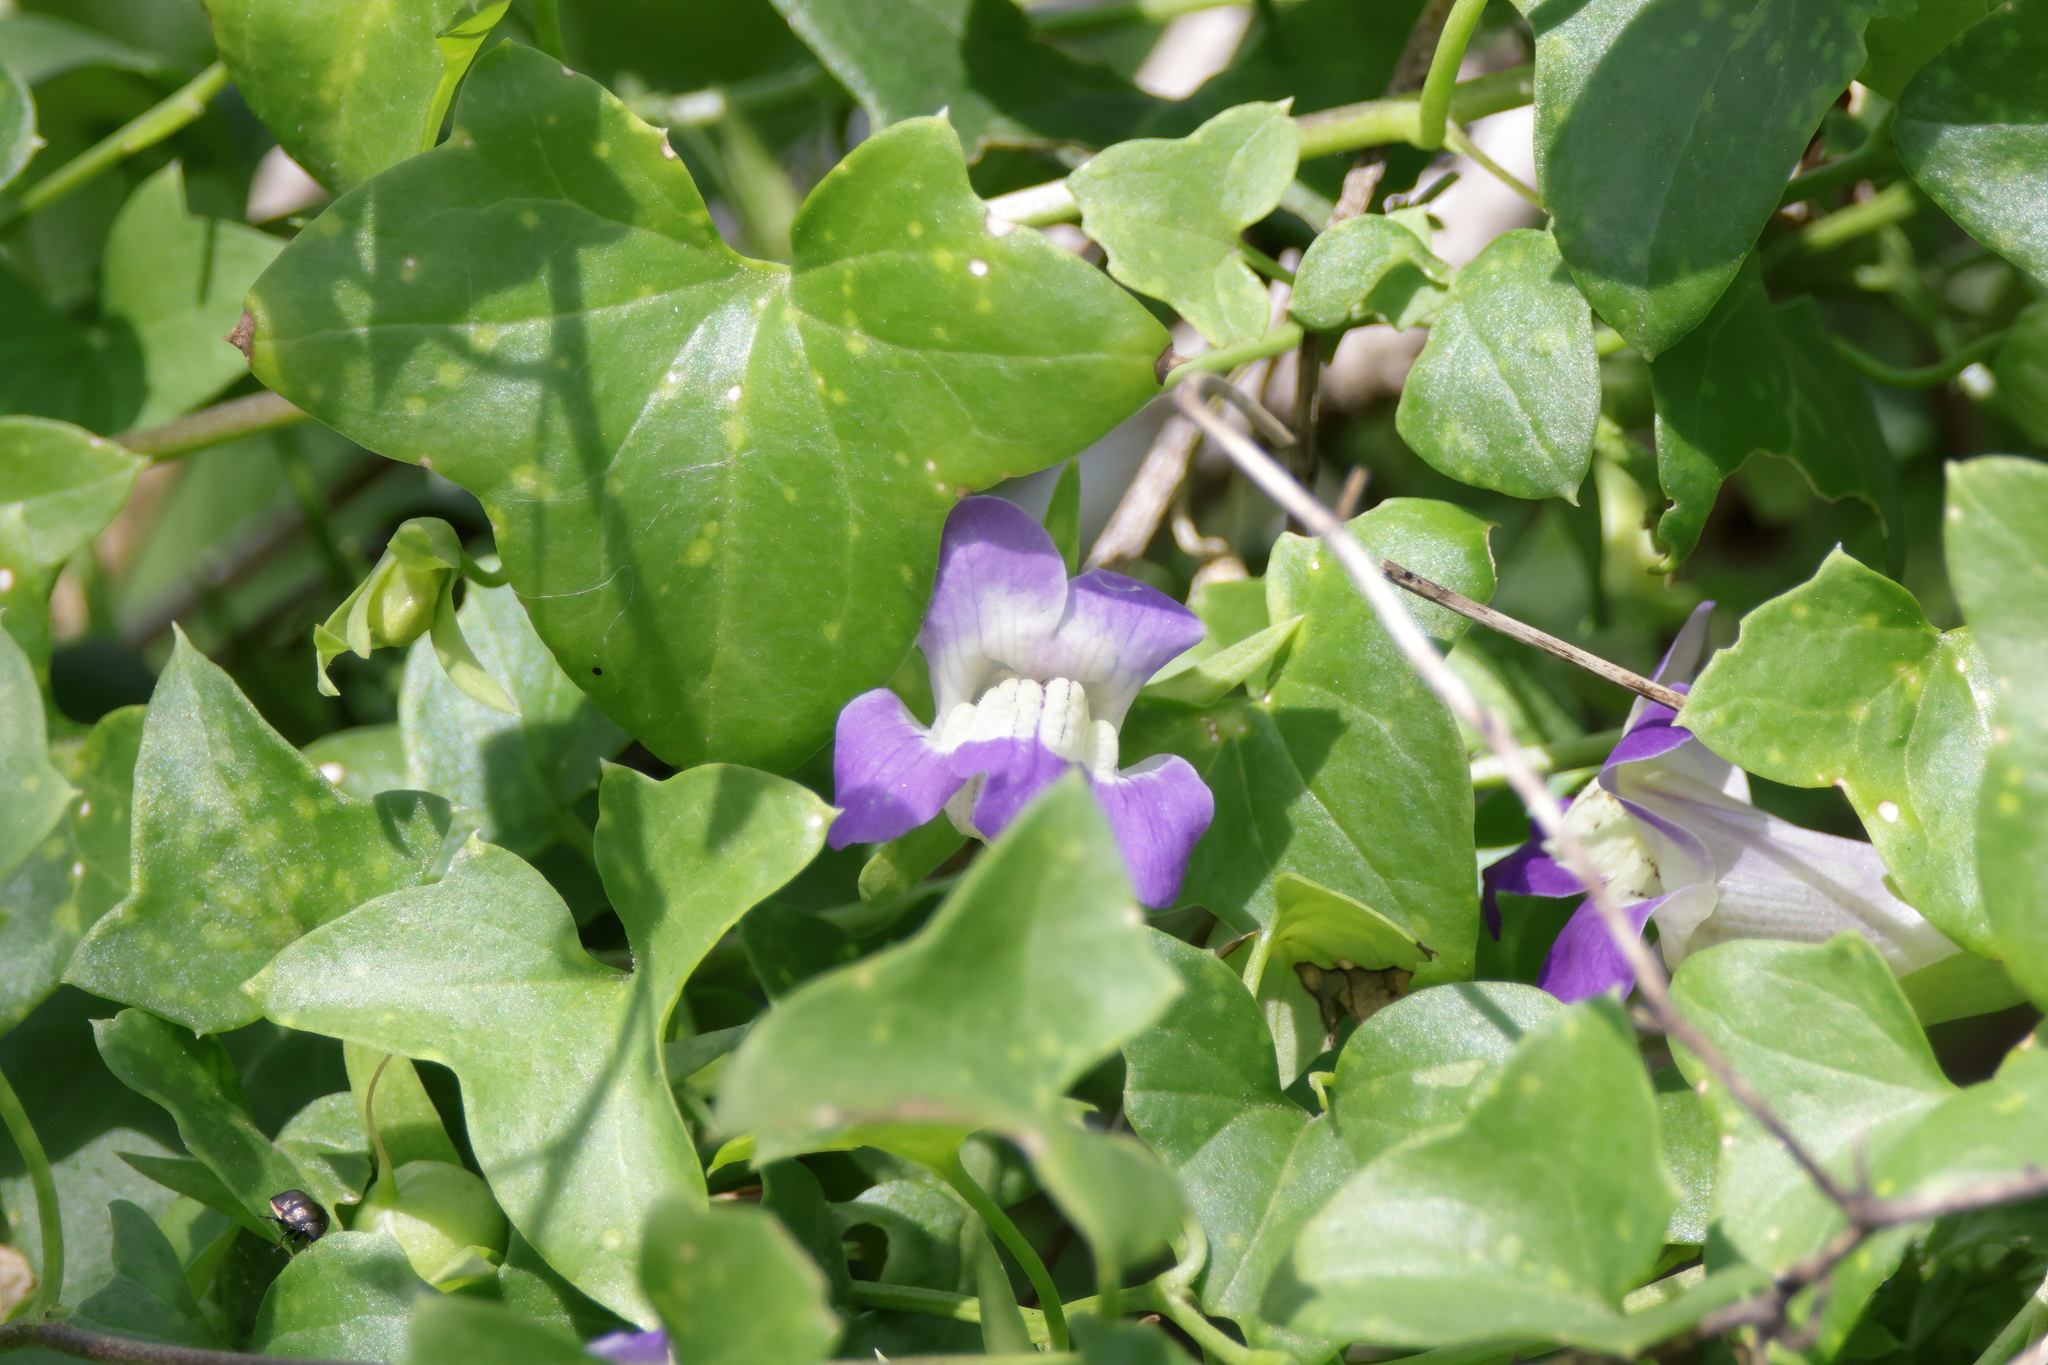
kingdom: Plantae
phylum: Tracheophyta
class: Magnoliopsida
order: Lamiales
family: Plantaginaceae
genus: Maurandella
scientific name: Maurandella antirrhiniflora
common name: Violet twining-snapdragon
